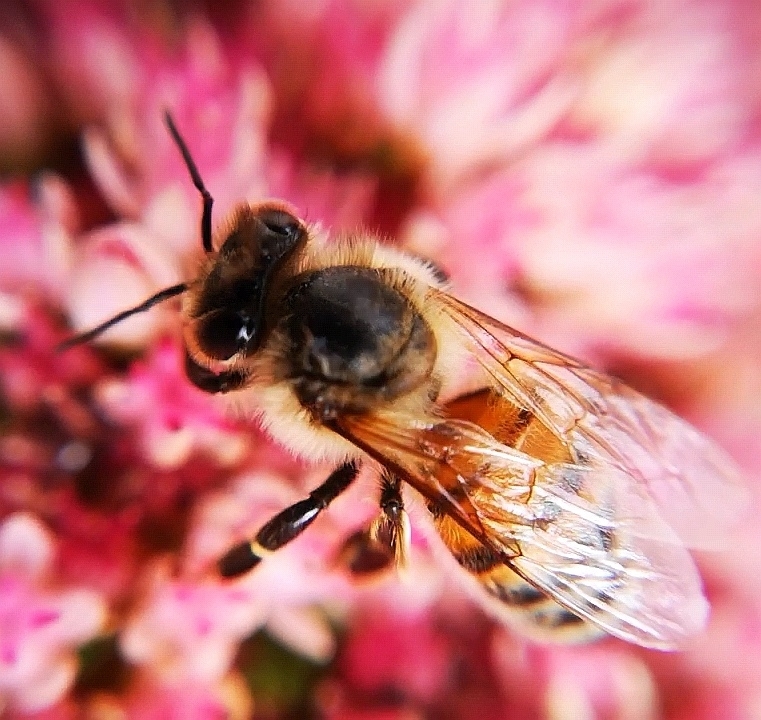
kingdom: Animalia
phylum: Arthropoda
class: Insecta
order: Hymenoptera
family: Apidae
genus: Apis
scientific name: Apis mellifera
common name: Honey bee
